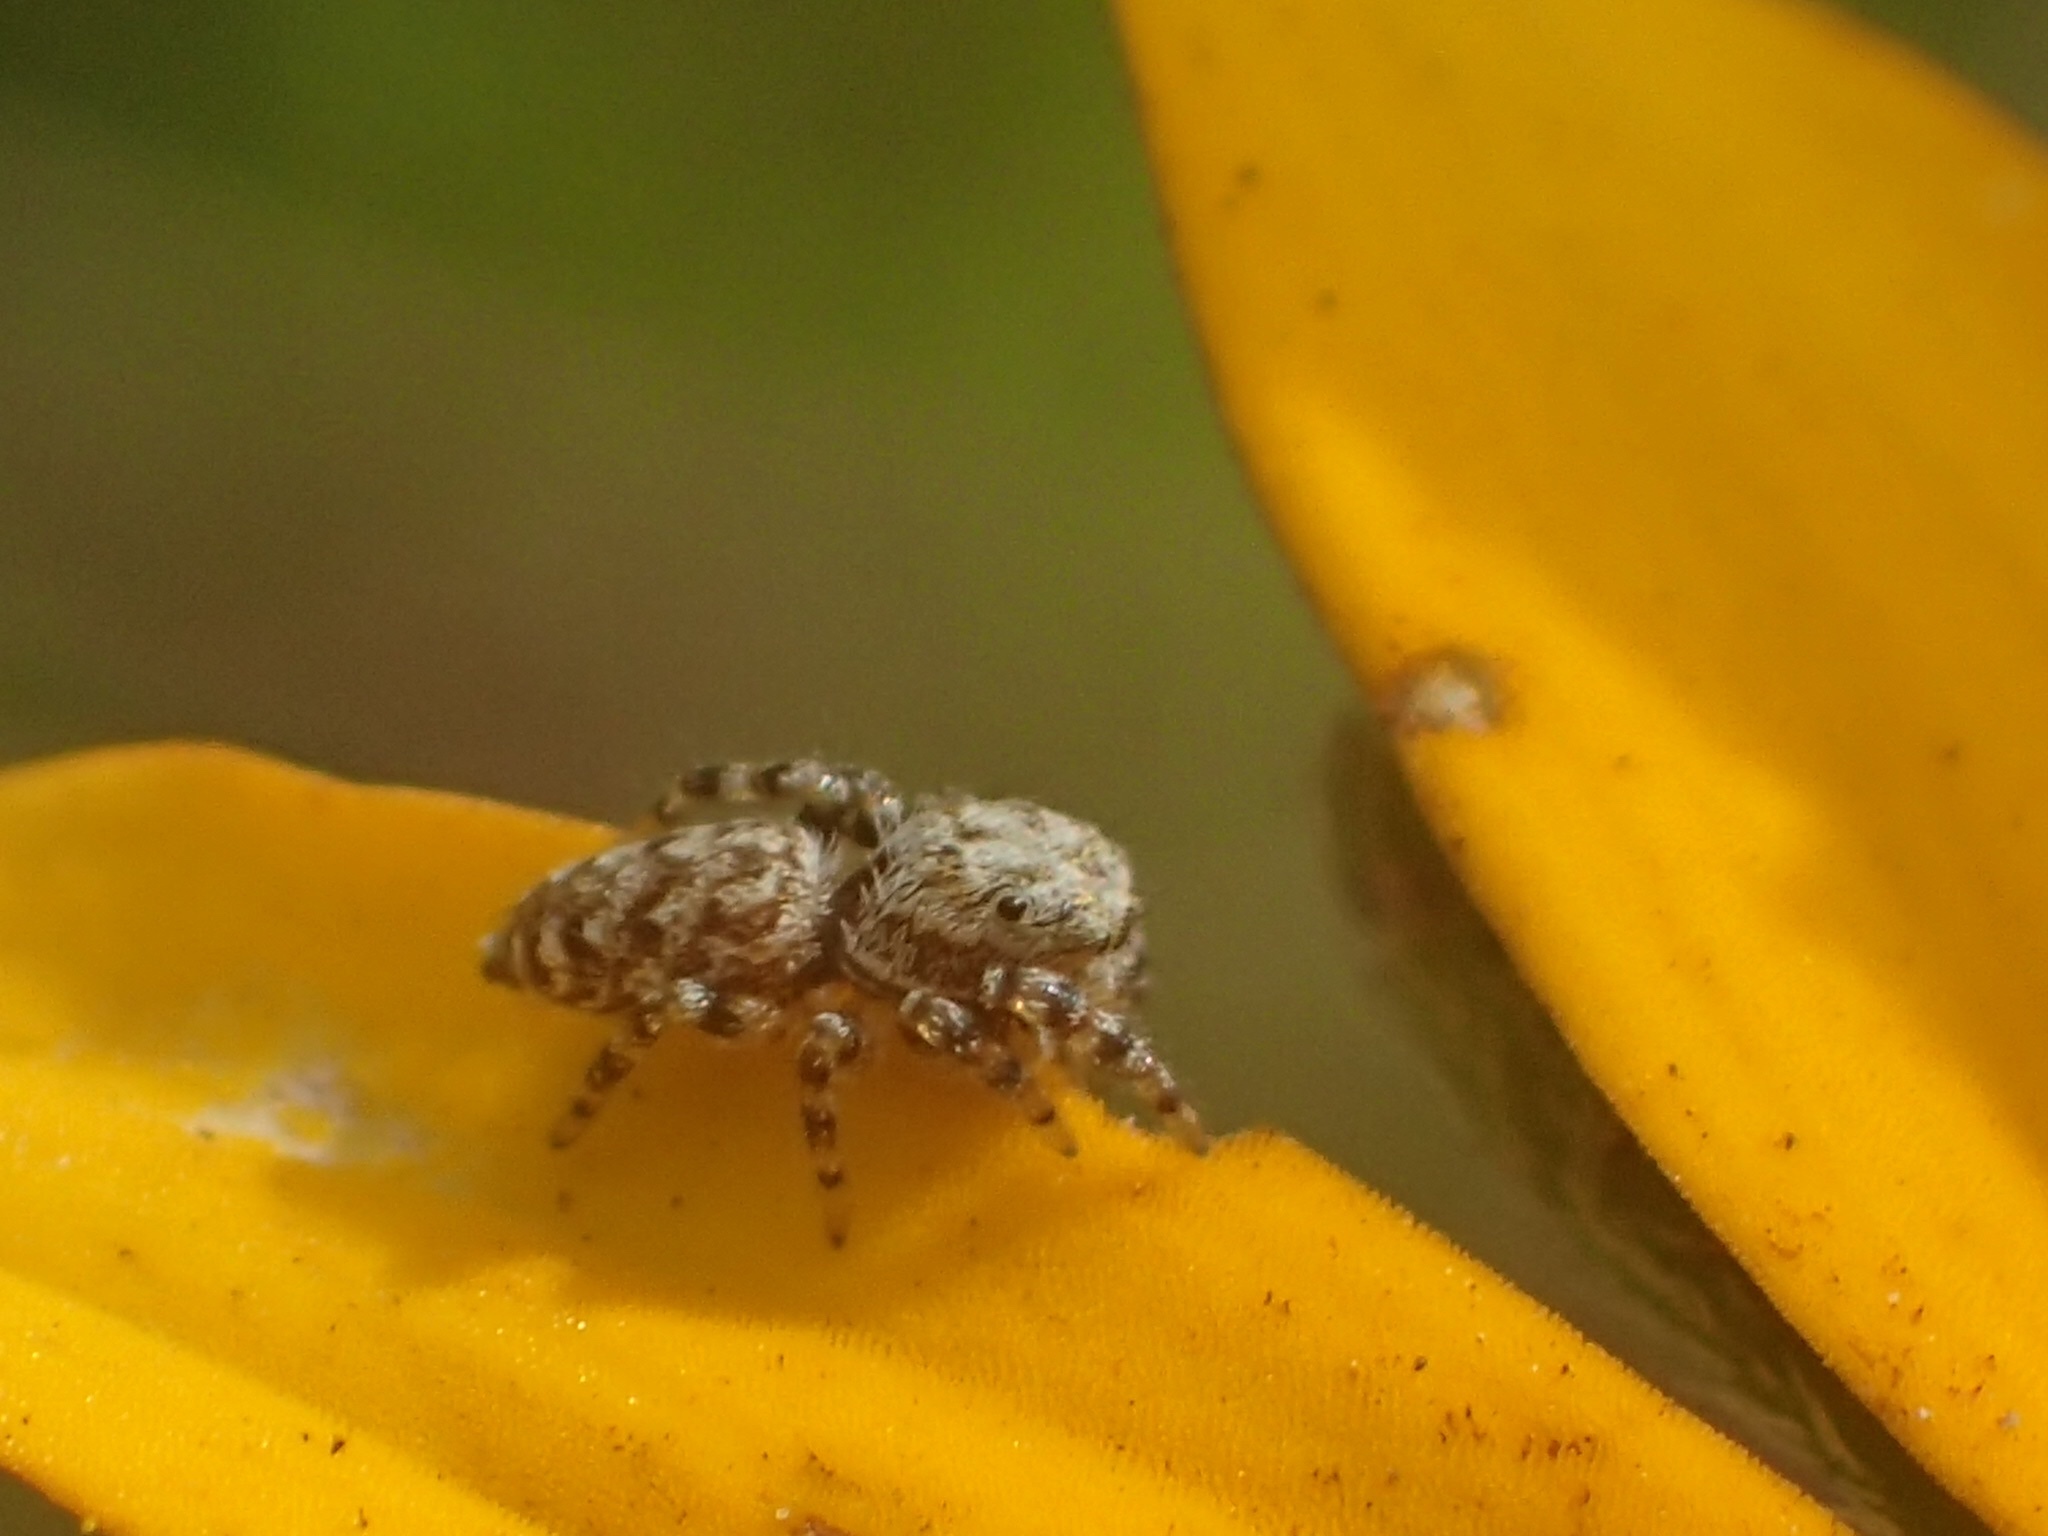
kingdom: Animalia
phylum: Arthropoda
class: Arachnida
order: Araneae
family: Salticidae
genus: Pelegrina
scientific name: Pelegrina galathea
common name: Jumping spiders
